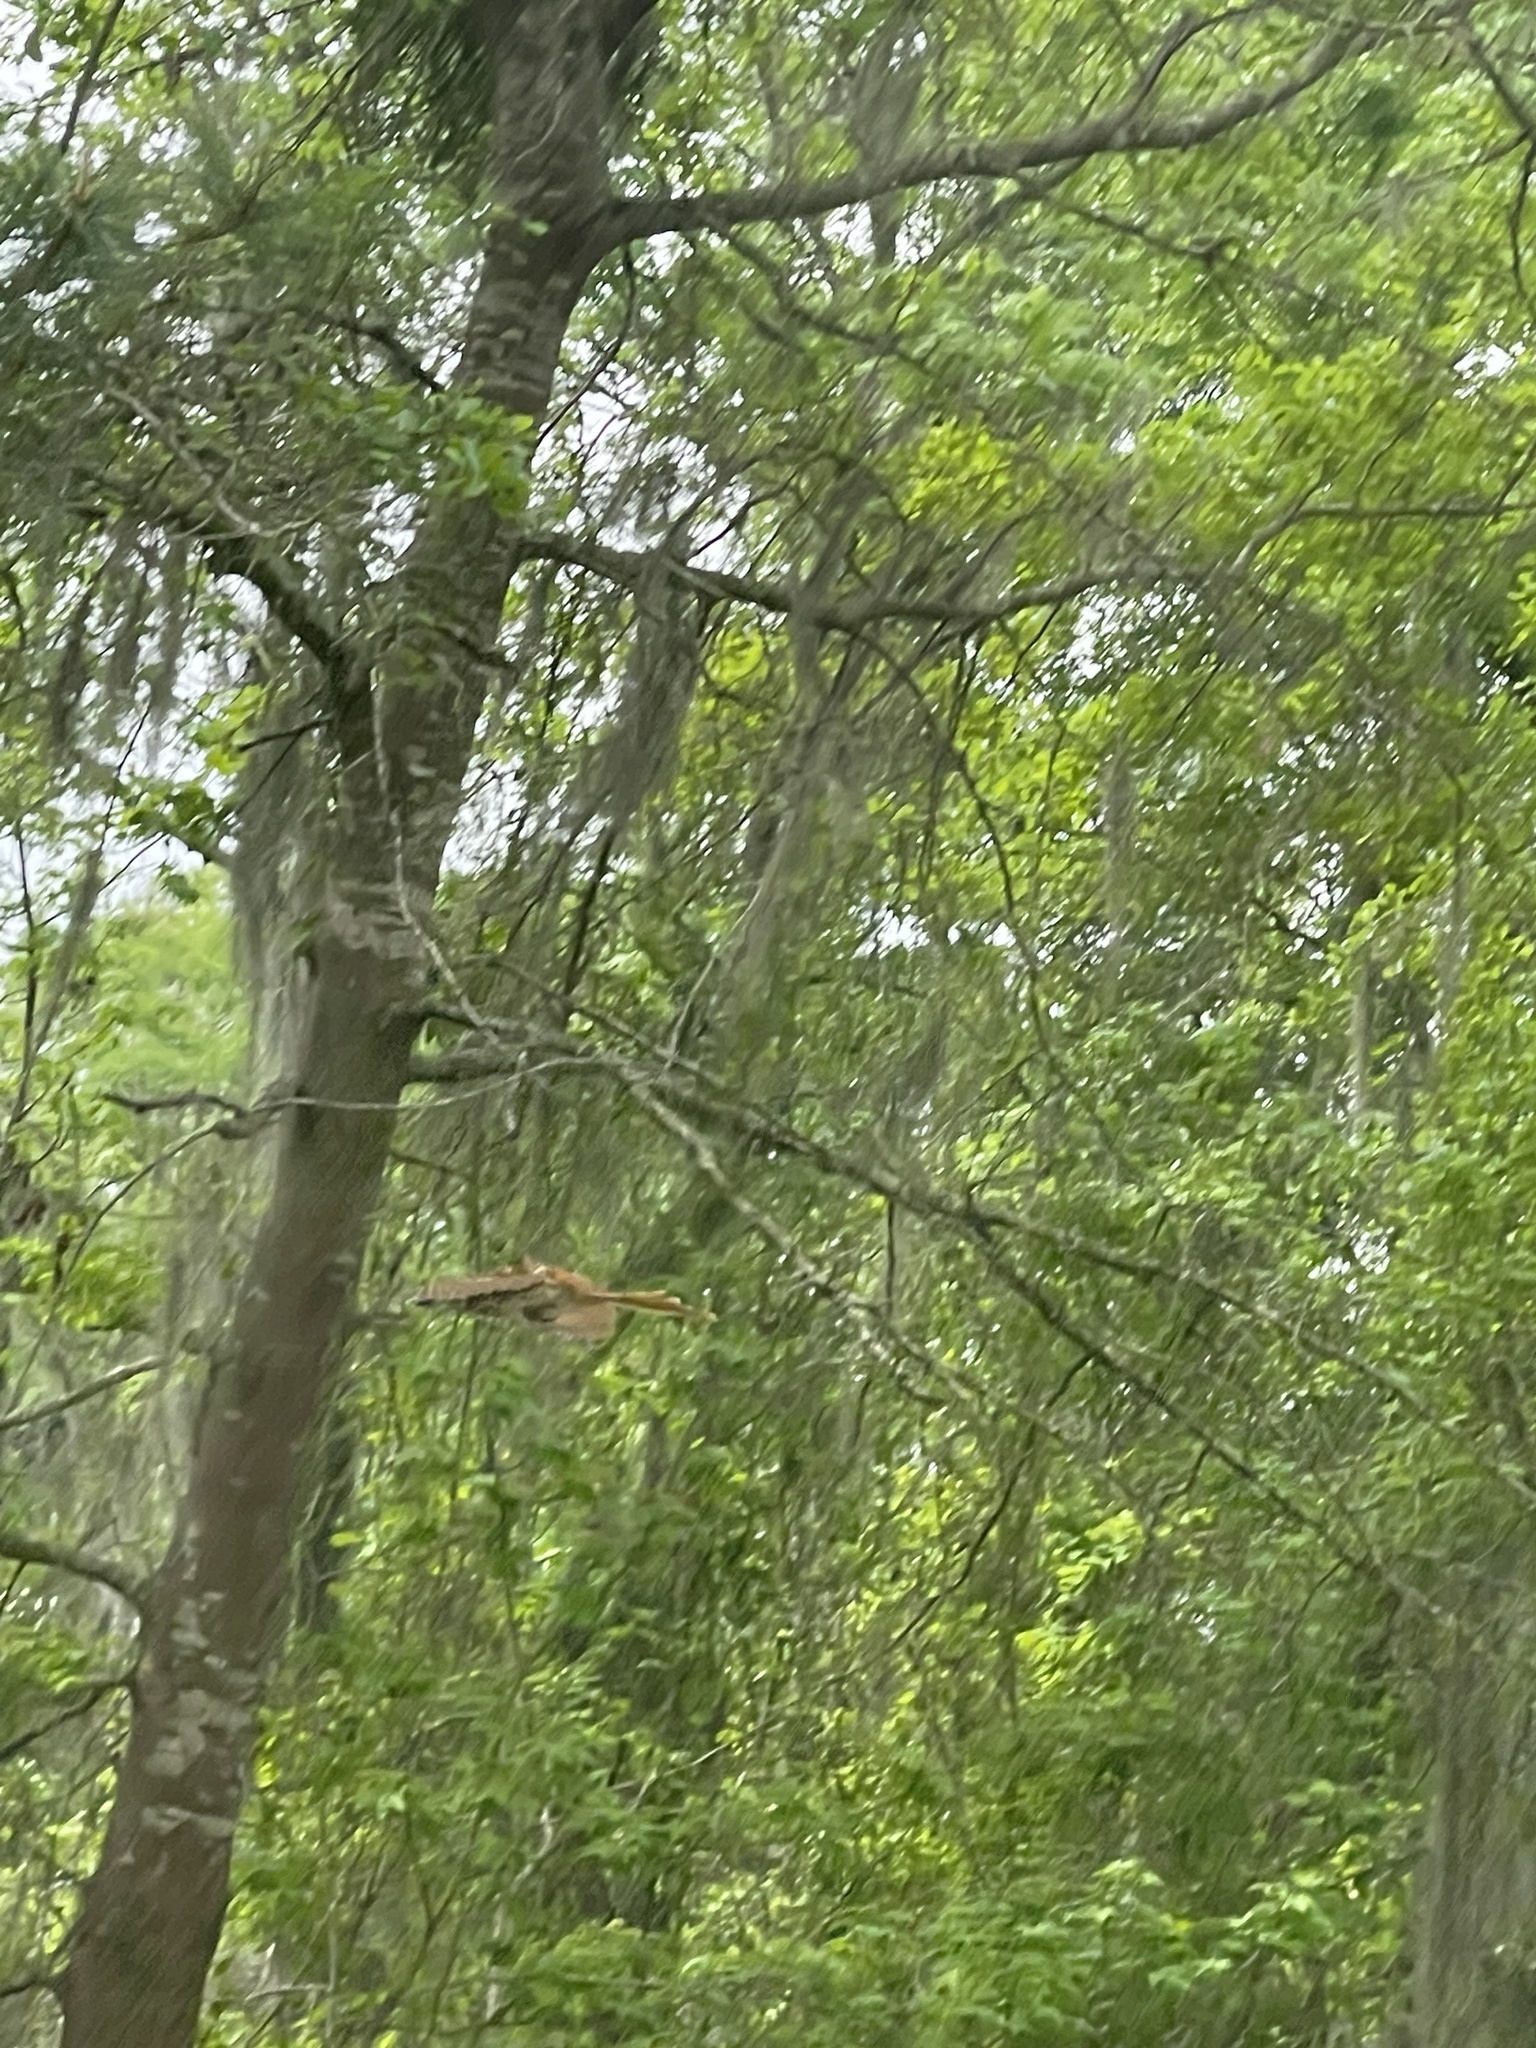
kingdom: Animalia
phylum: Chordata
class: Aves
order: Passeriformes
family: Mimidae
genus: Toxostoma
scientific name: Toxostoma rufum
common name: Brown thrasher
